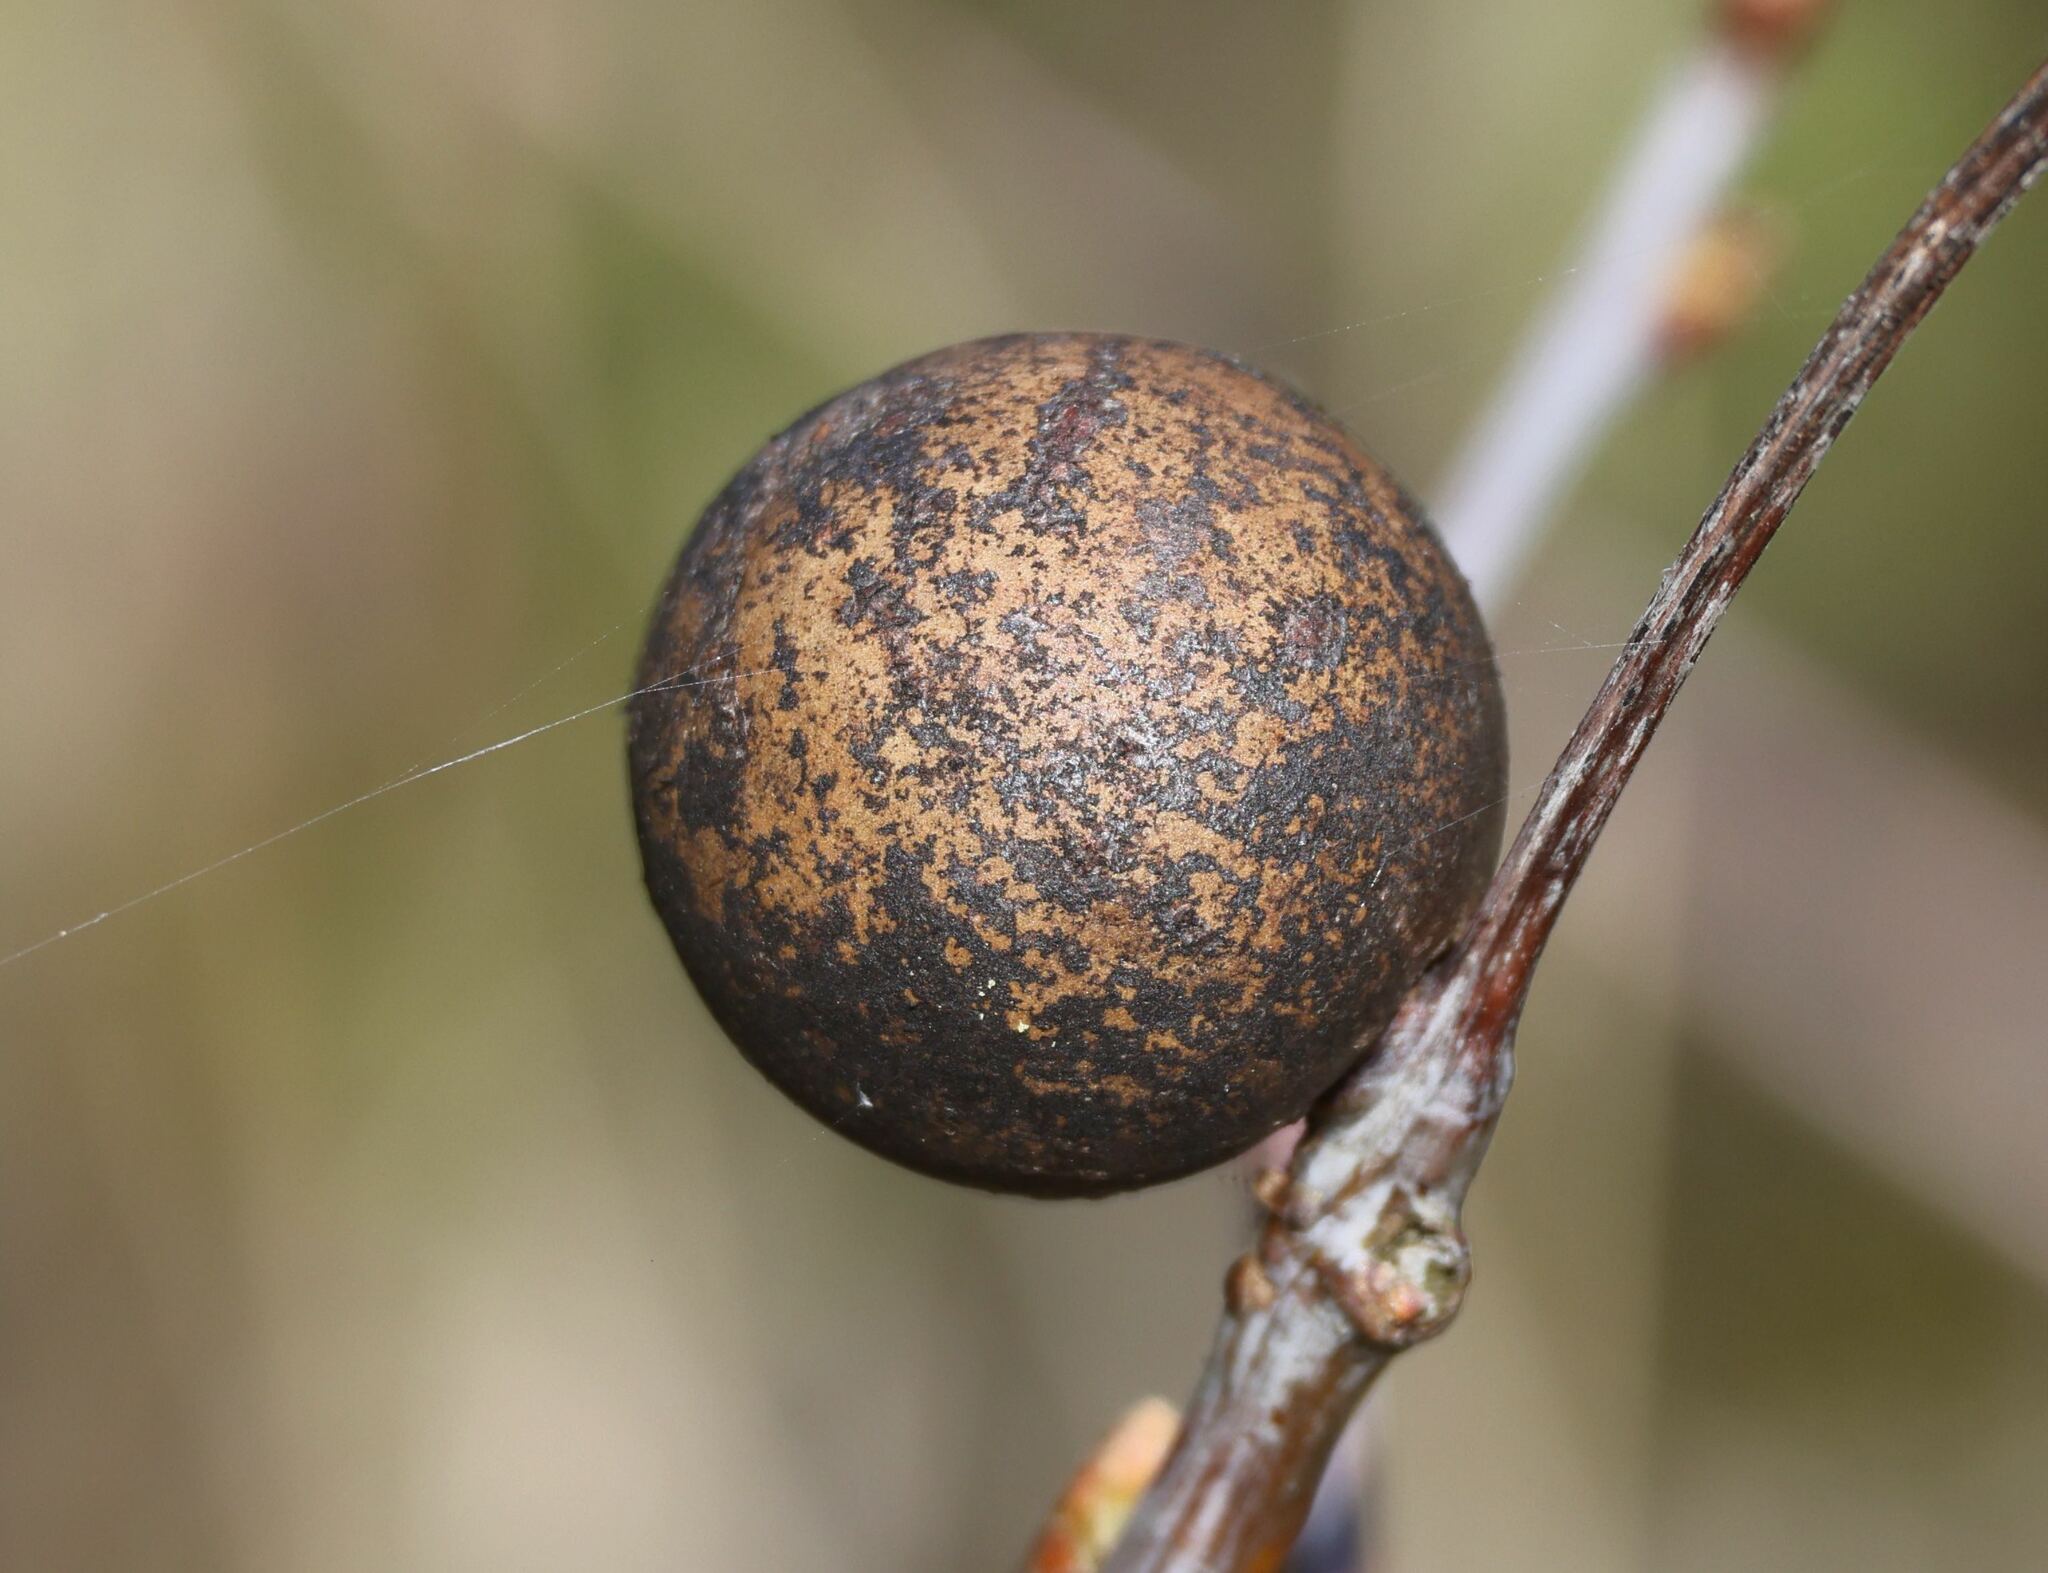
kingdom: Animalia
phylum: Arthropoda
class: Insecta
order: Hymenoptera
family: Cynipidae
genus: Andricus
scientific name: Andricus kollari
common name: Marble gall
